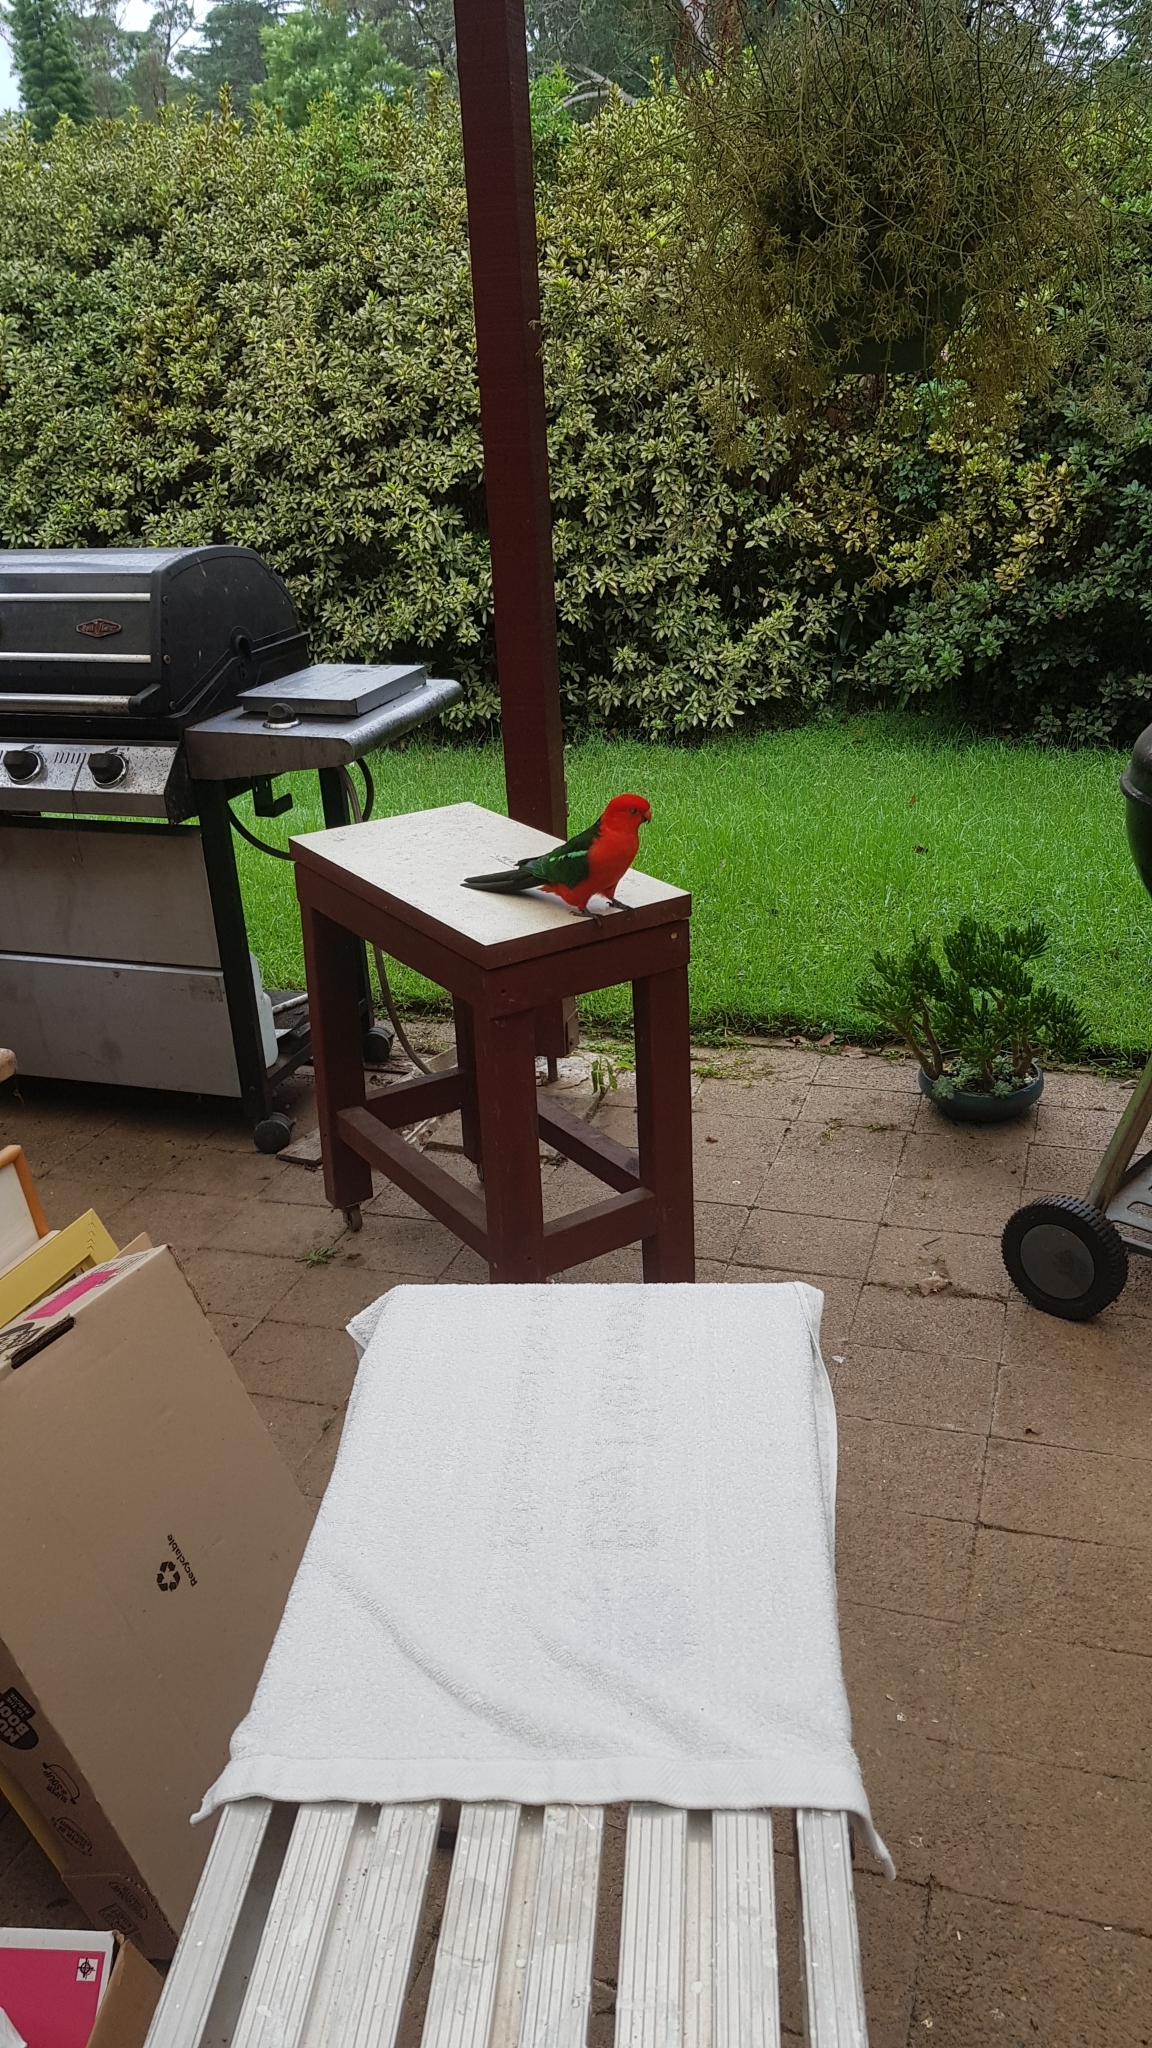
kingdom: Animalia
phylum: Chordata
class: Aves
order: Psittaciformes
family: Psittacidae
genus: Alisterus
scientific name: Alisterus scapularis
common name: Australian king parrot
